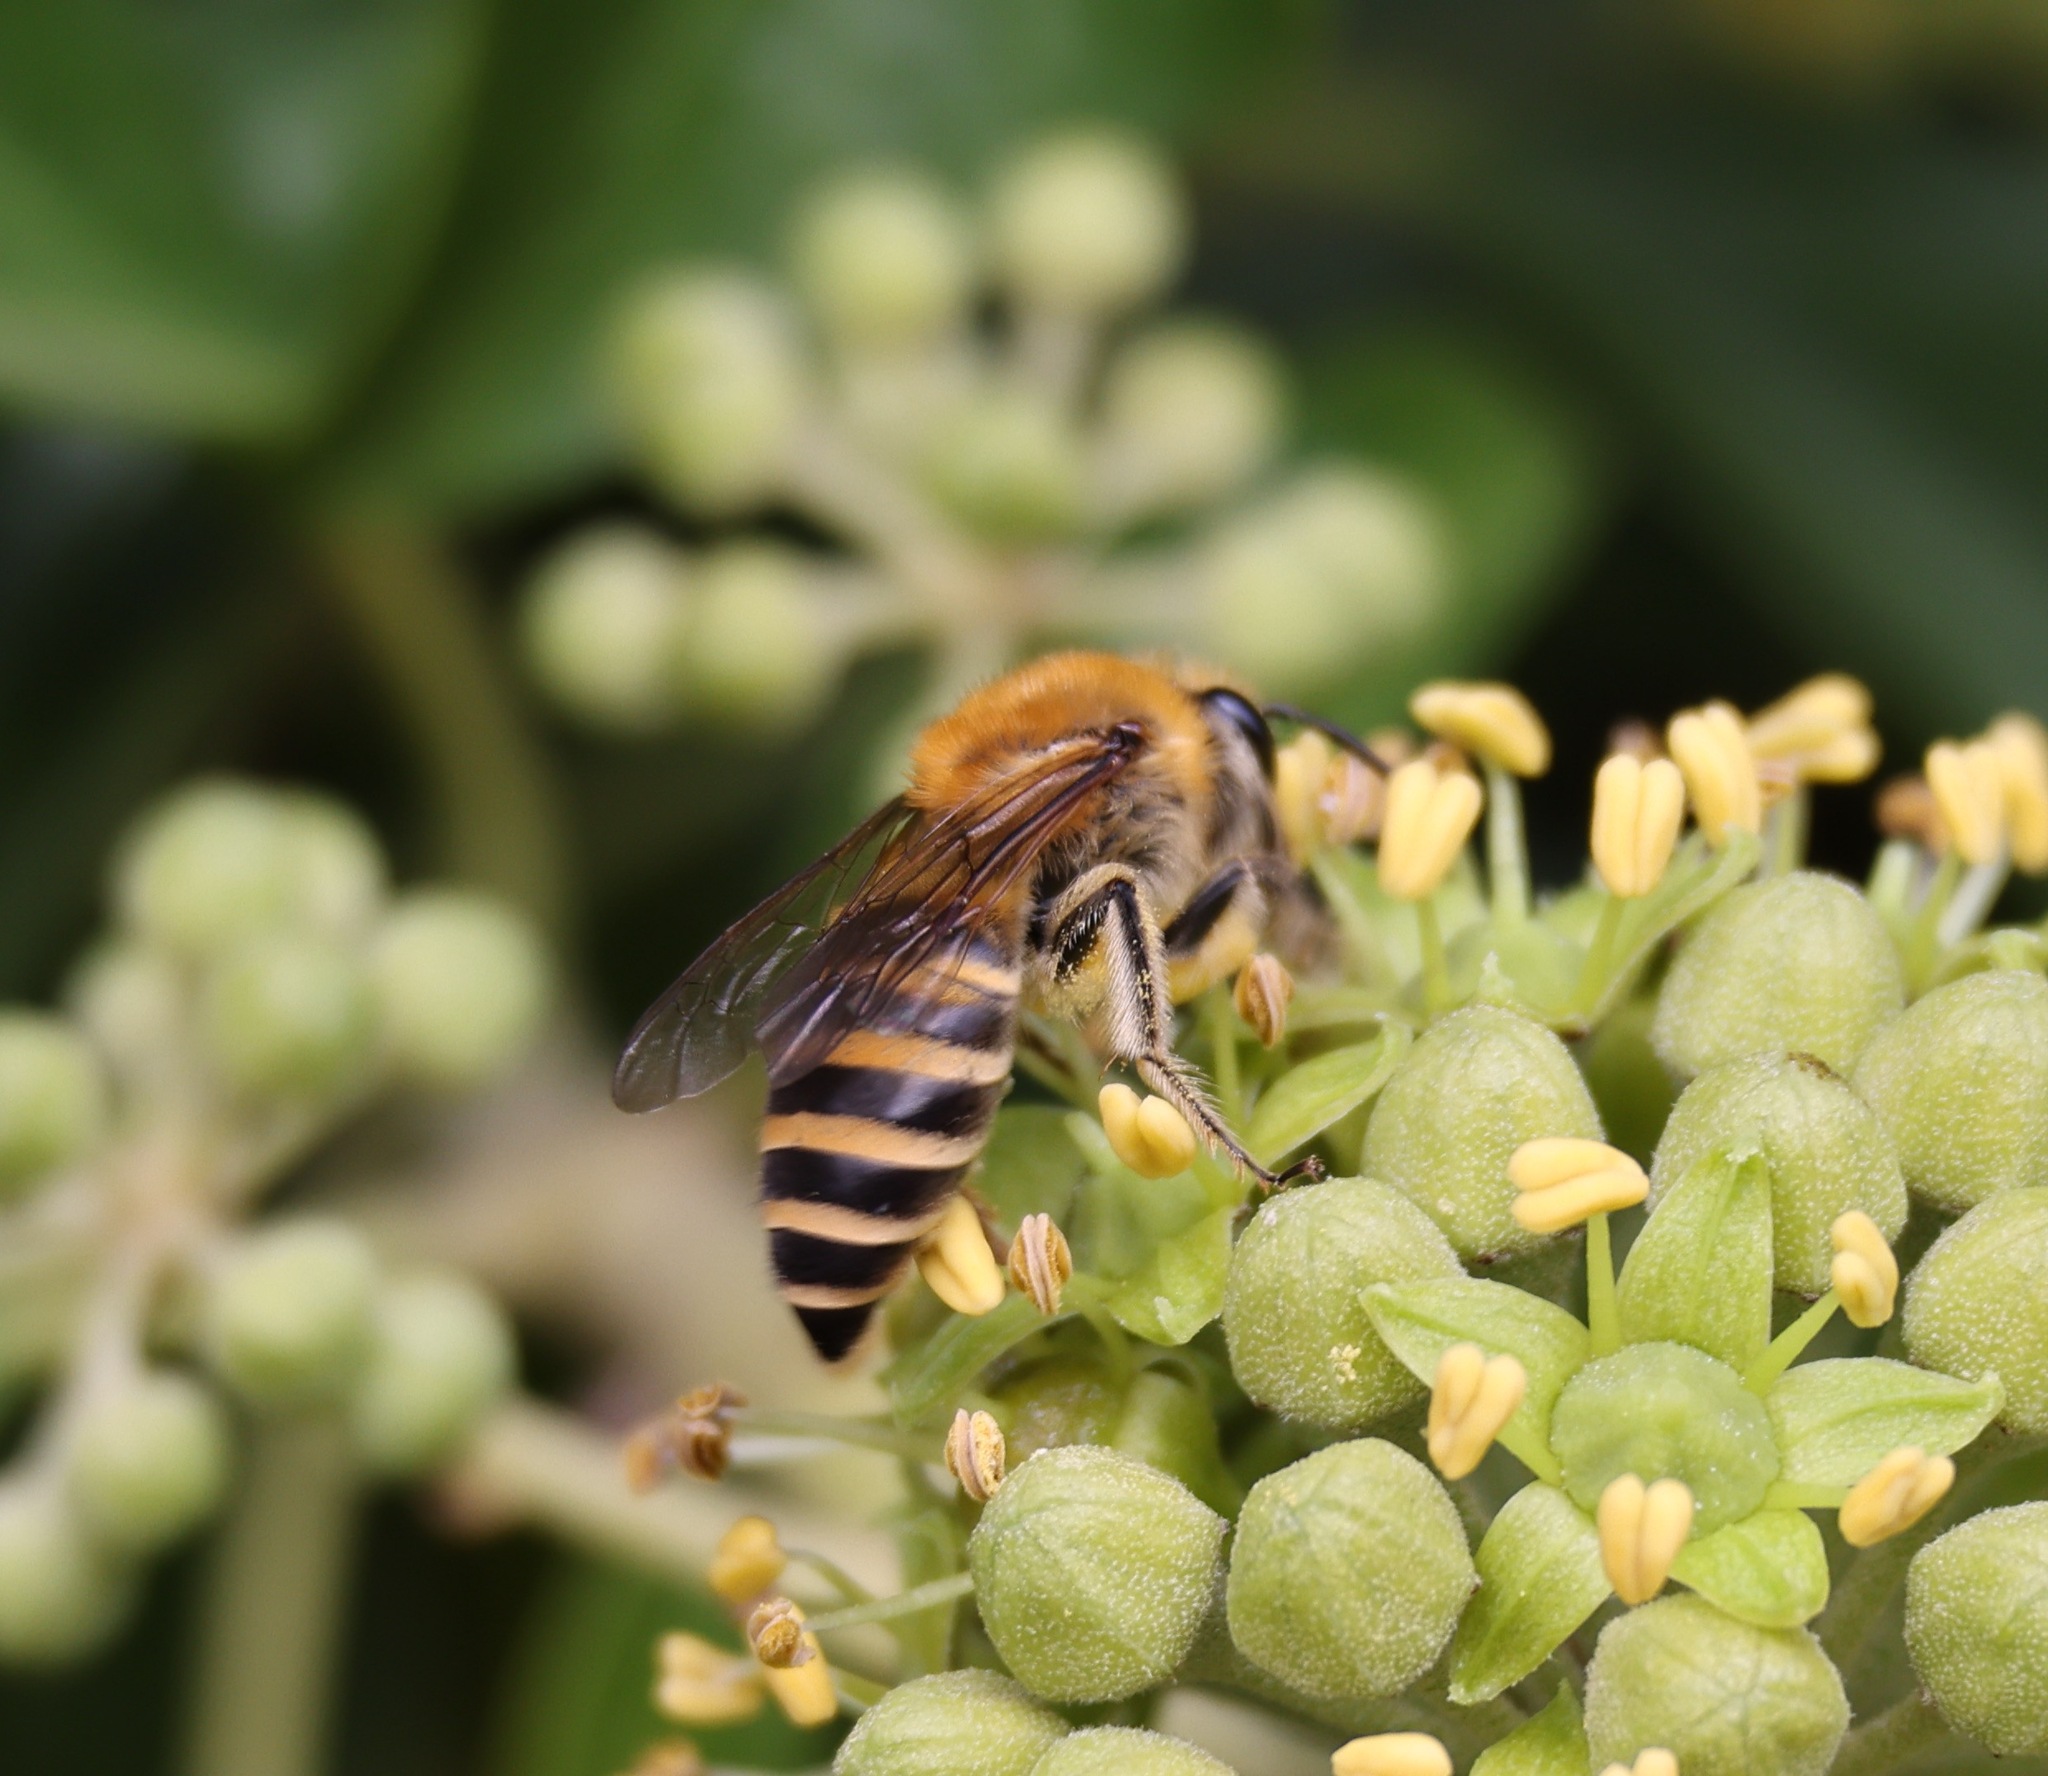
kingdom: Animalia
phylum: Arthropoda
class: Insecta
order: Hymenoptera
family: Colletidae
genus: Colletes
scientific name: Colletes hederae
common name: Ivy bee
